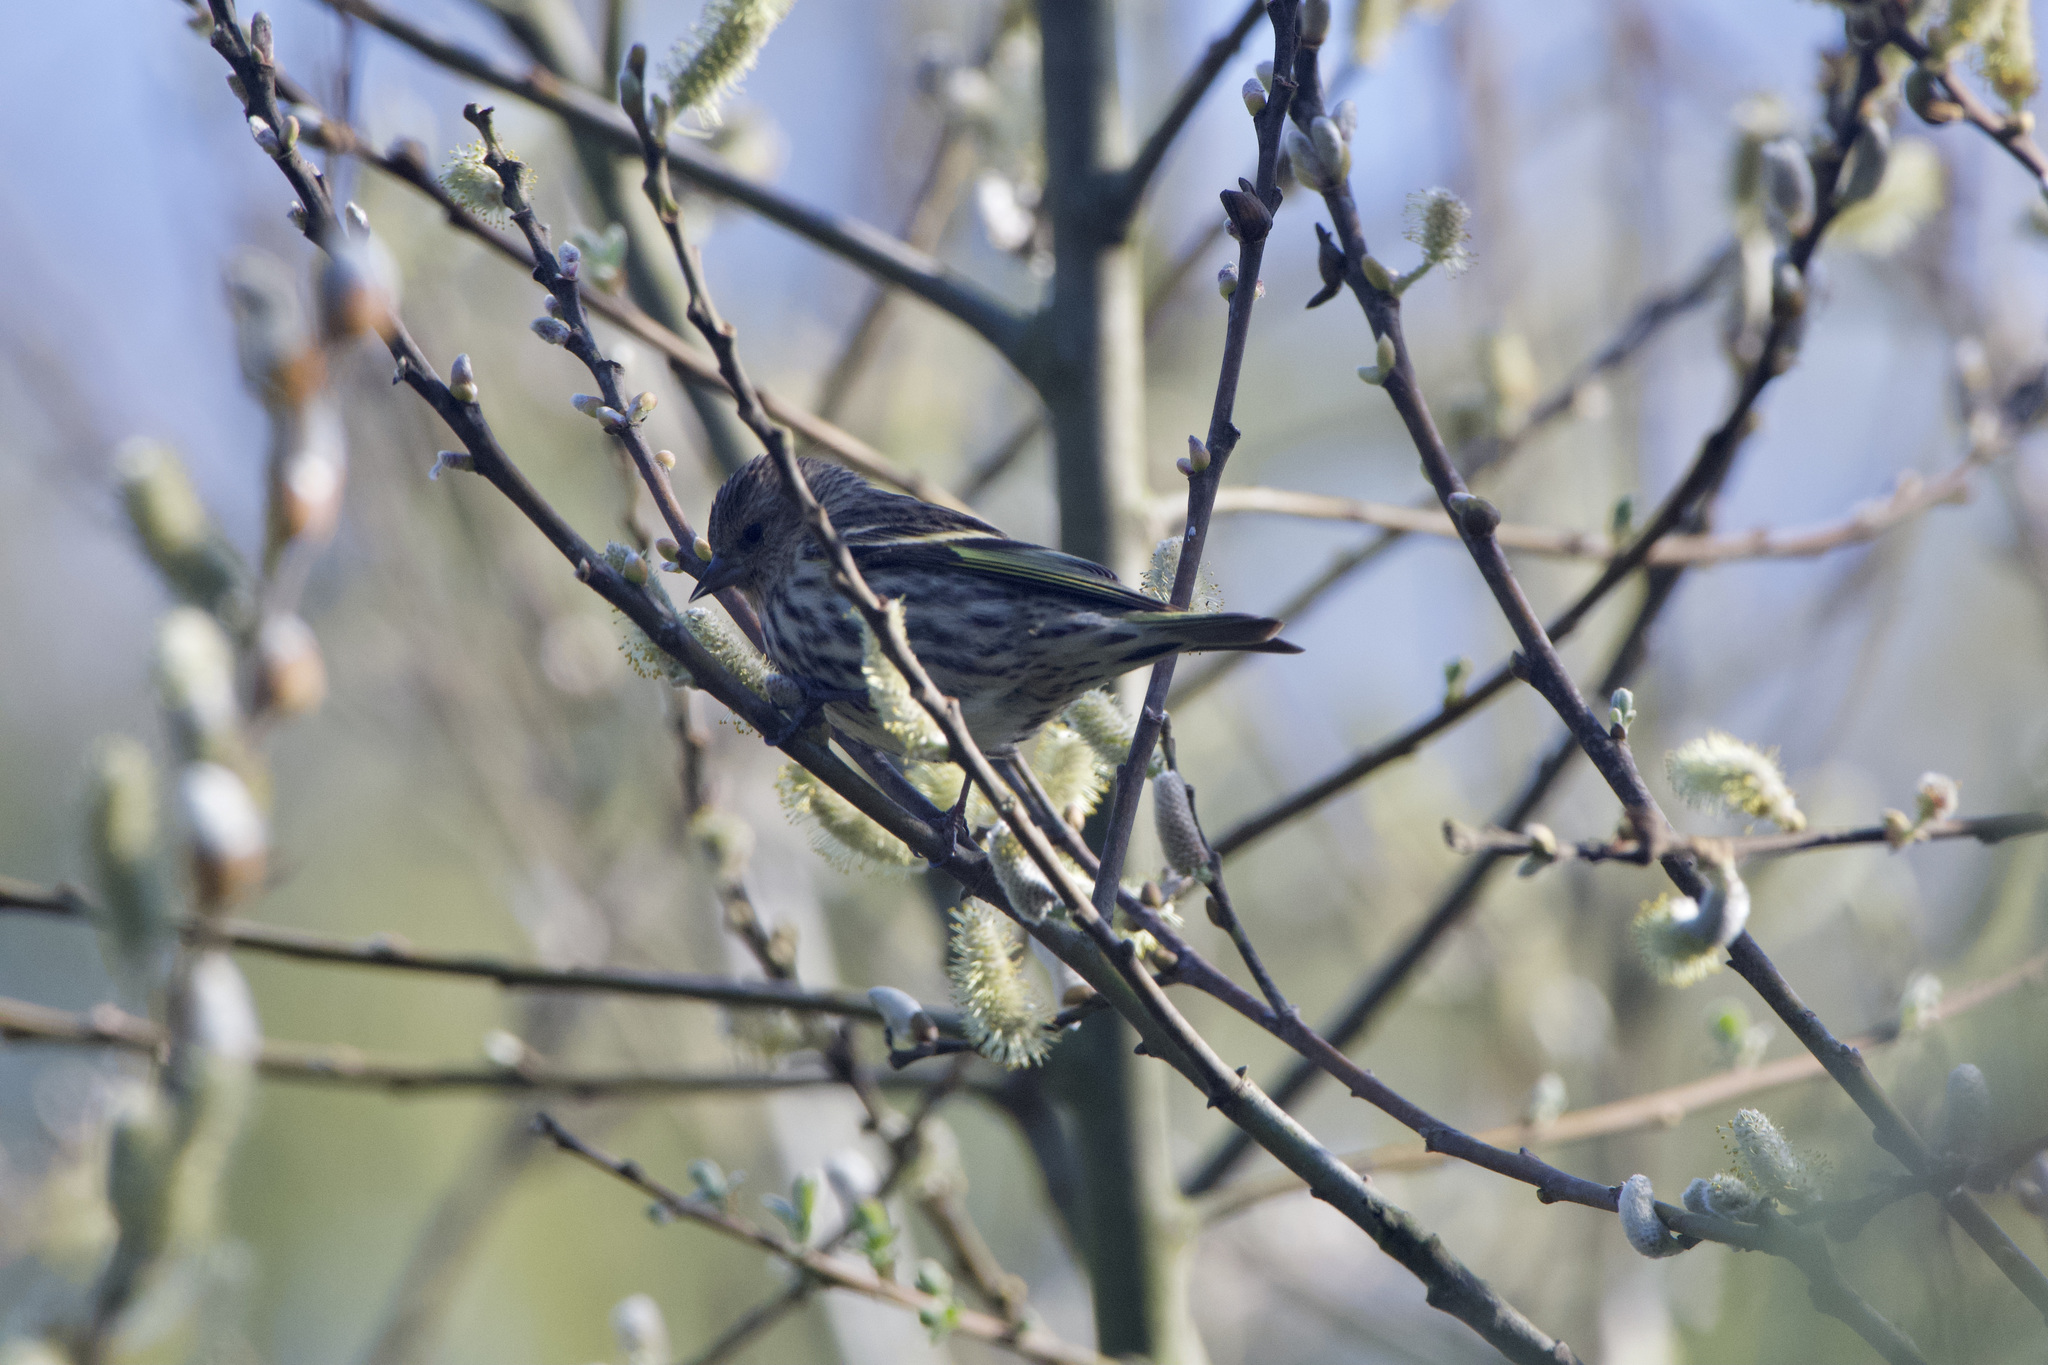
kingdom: Animalia
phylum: Chordata
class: Aves
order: Passeriformes
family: Fringillidae
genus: Spinus
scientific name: Spinus pinus
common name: Pine siskin
